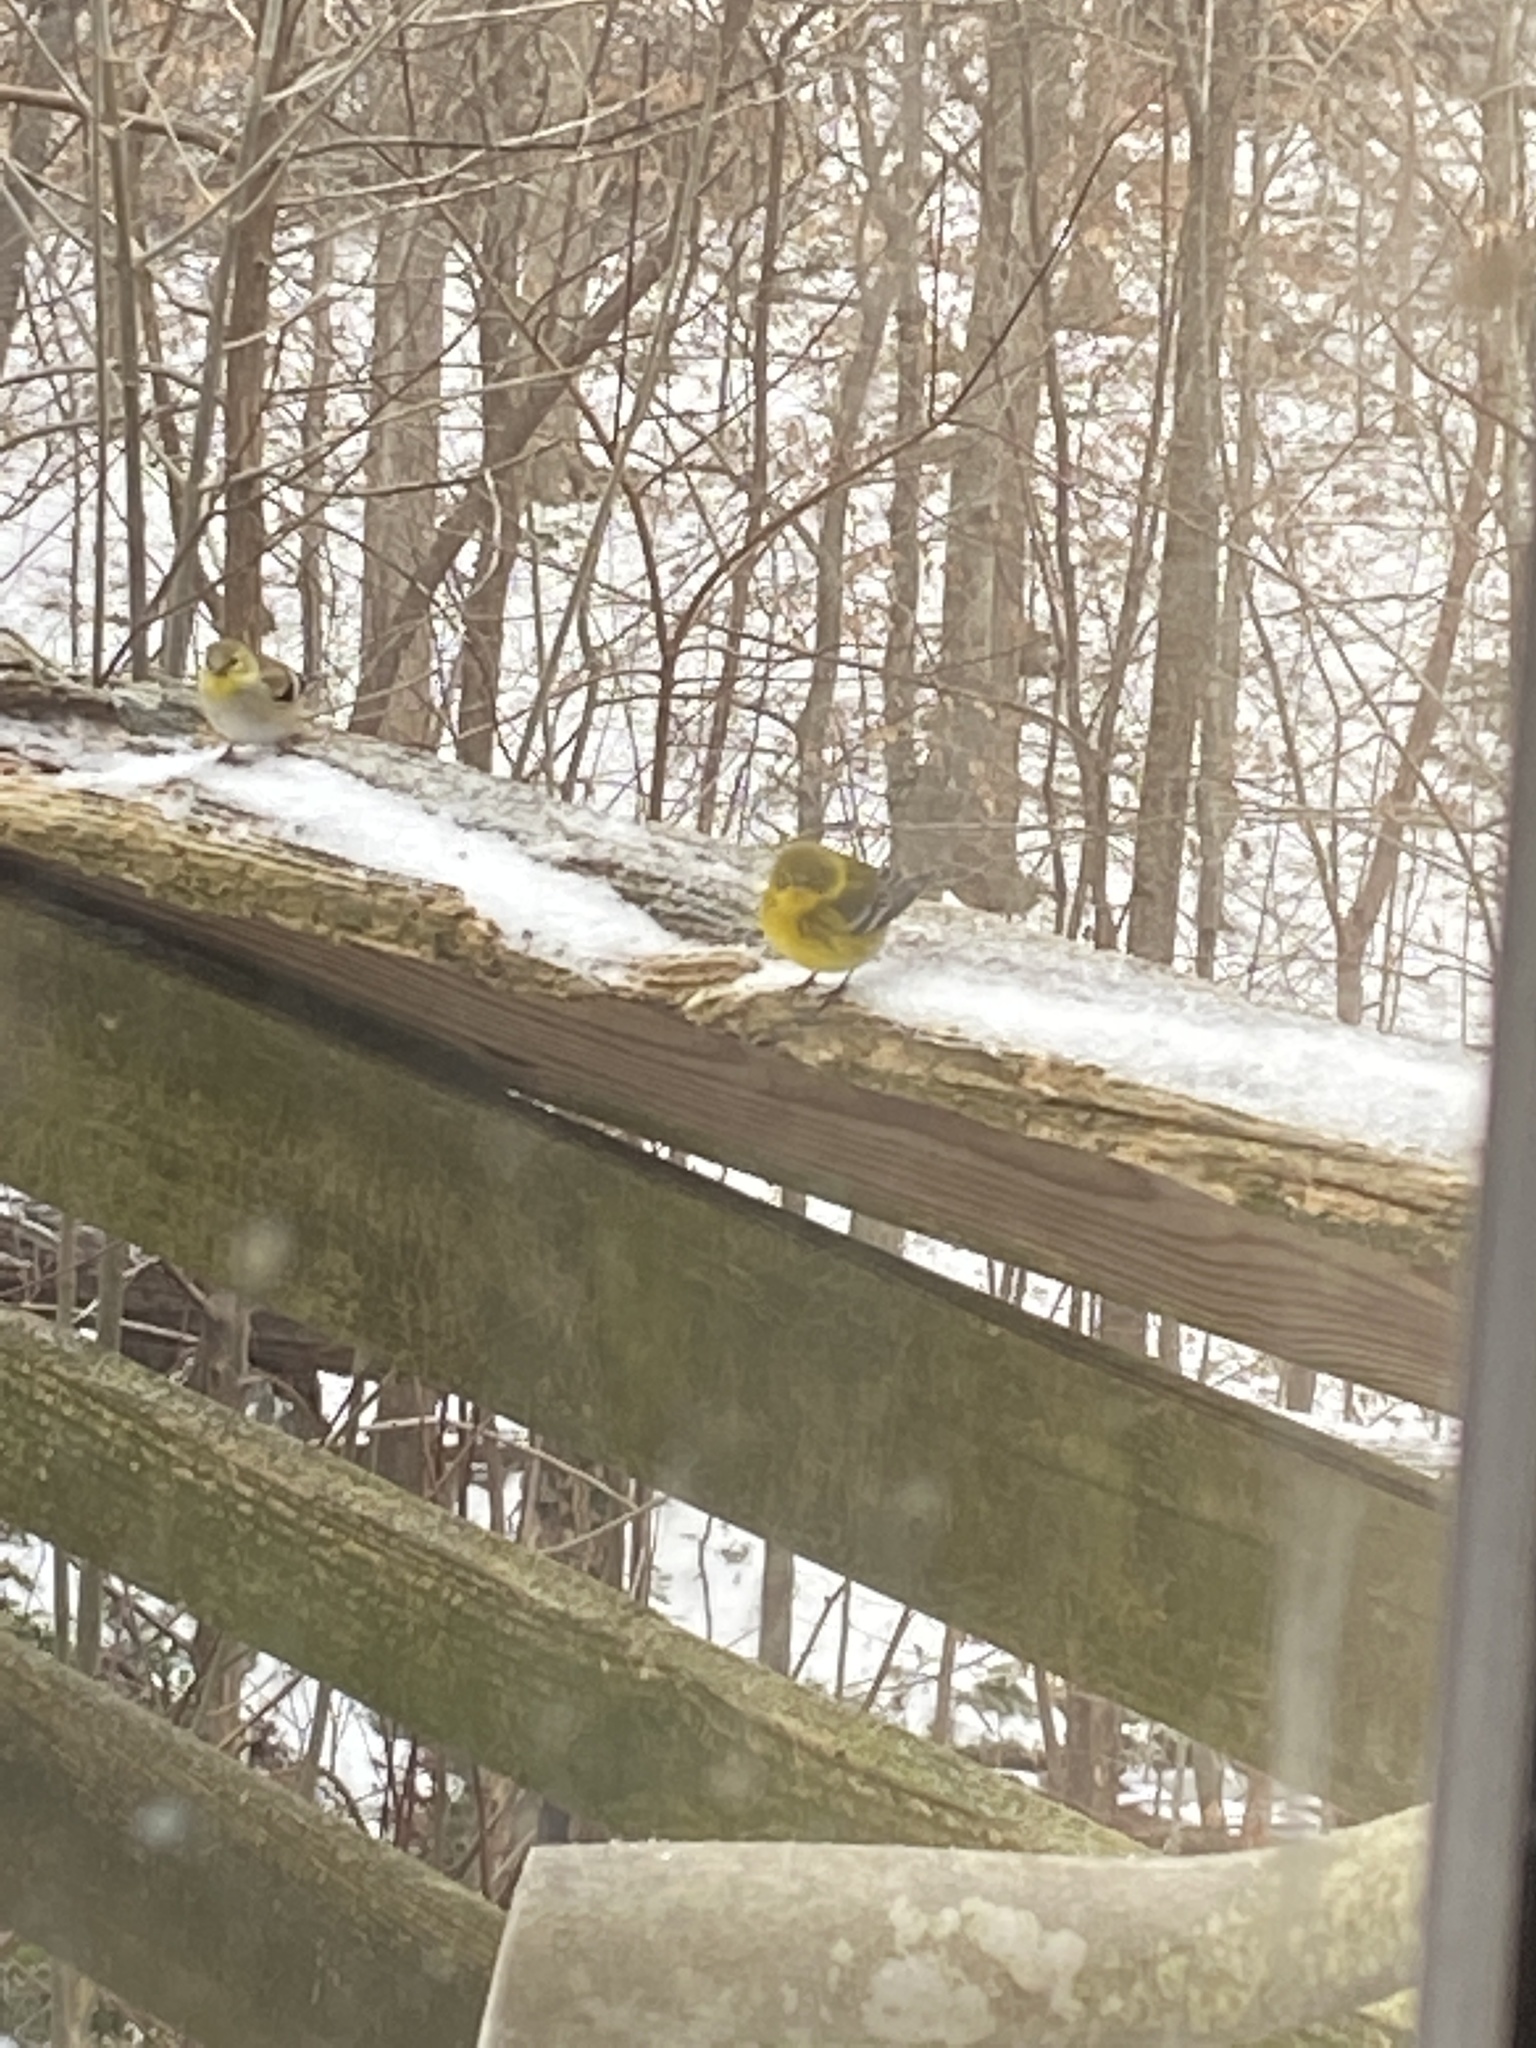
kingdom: Animalia
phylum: Chordata
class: Aves
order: Passeriformes
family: Parulidae
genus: Setophaga
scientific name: Setophaga pinus
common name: Pine warbler
